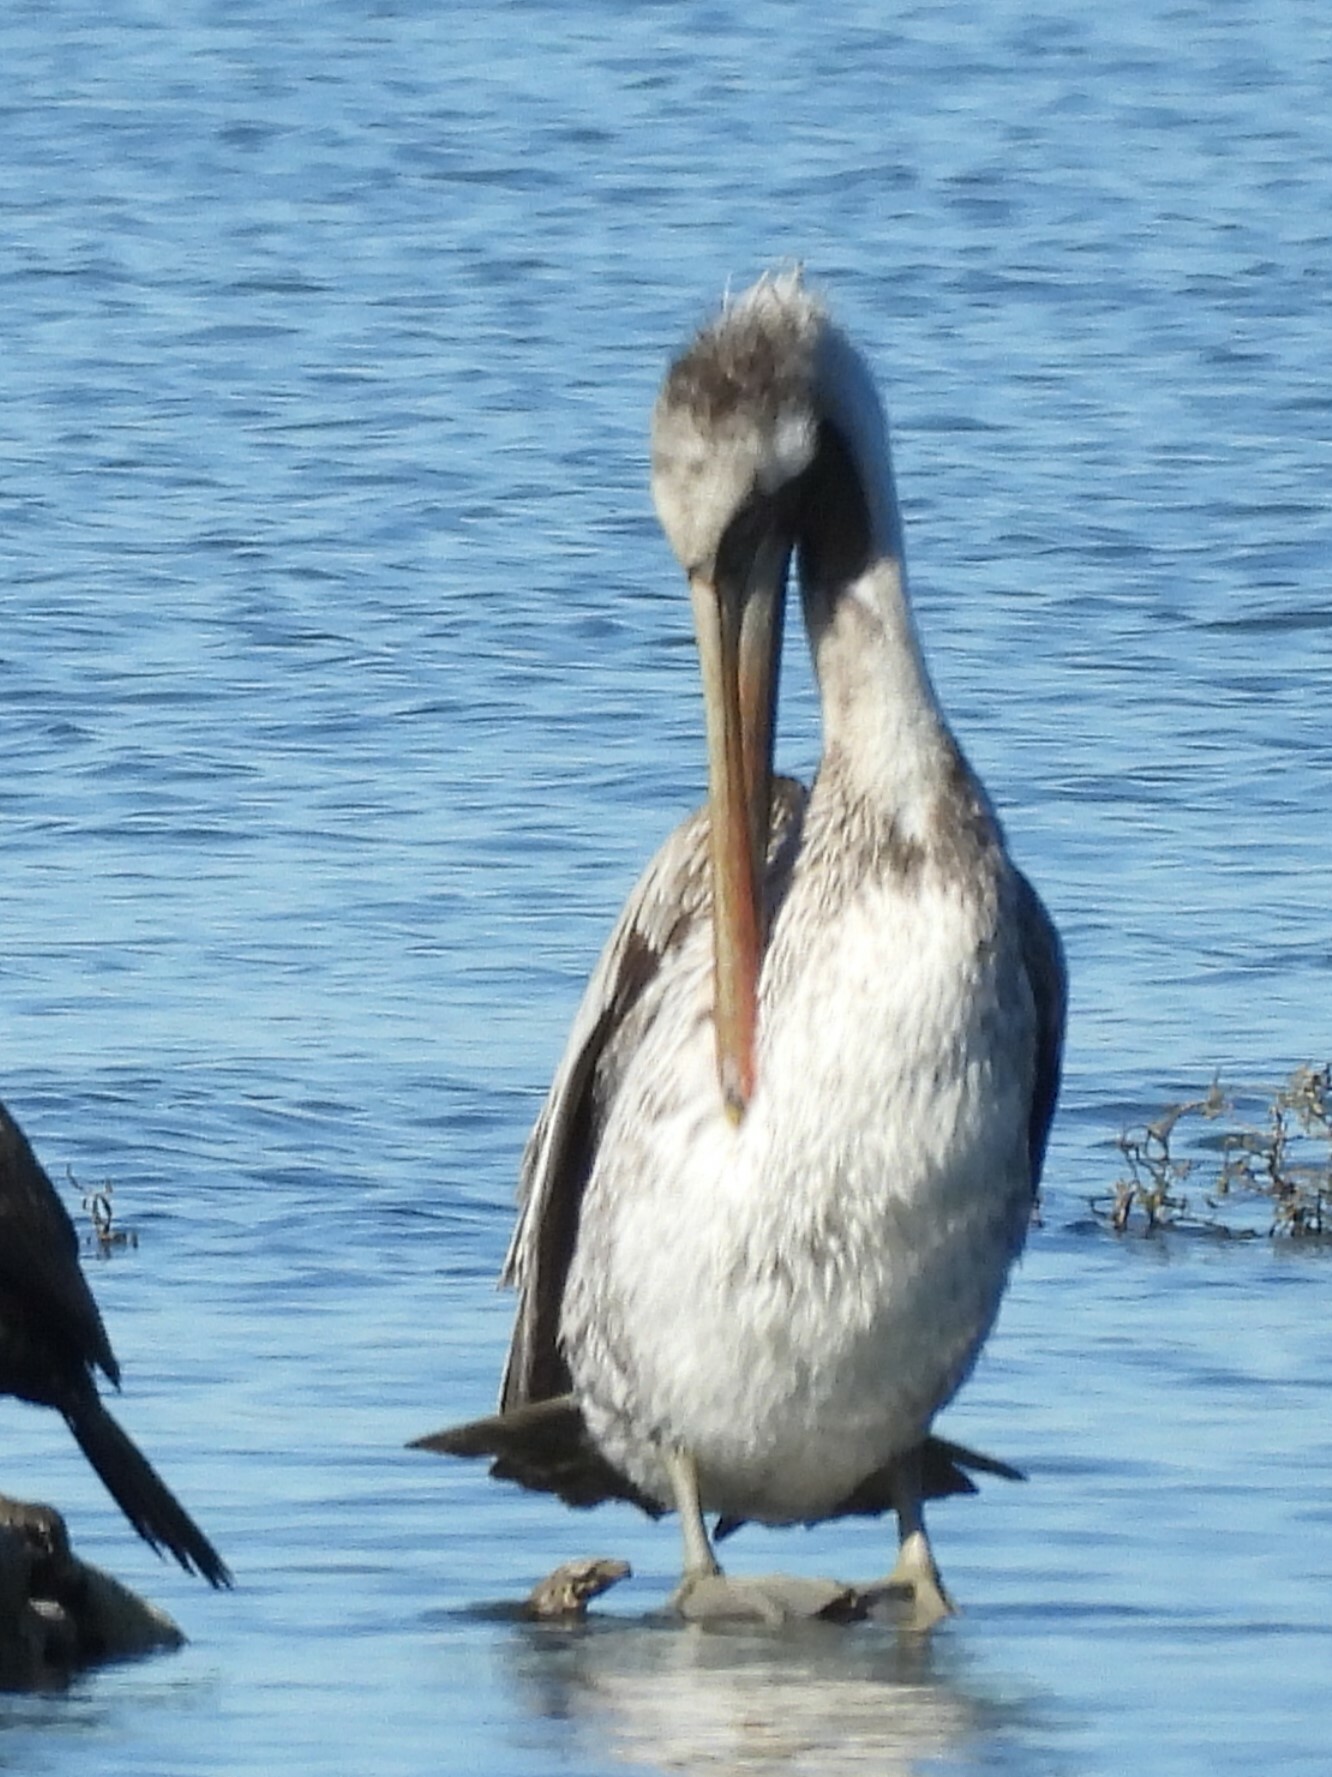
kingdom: Animalia
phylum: Chordata
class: Aves
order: Pelecaniformes
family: Pelecanidae
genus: Pelecanus
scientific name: Pelecanus occidentalis
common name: Brown pelican
